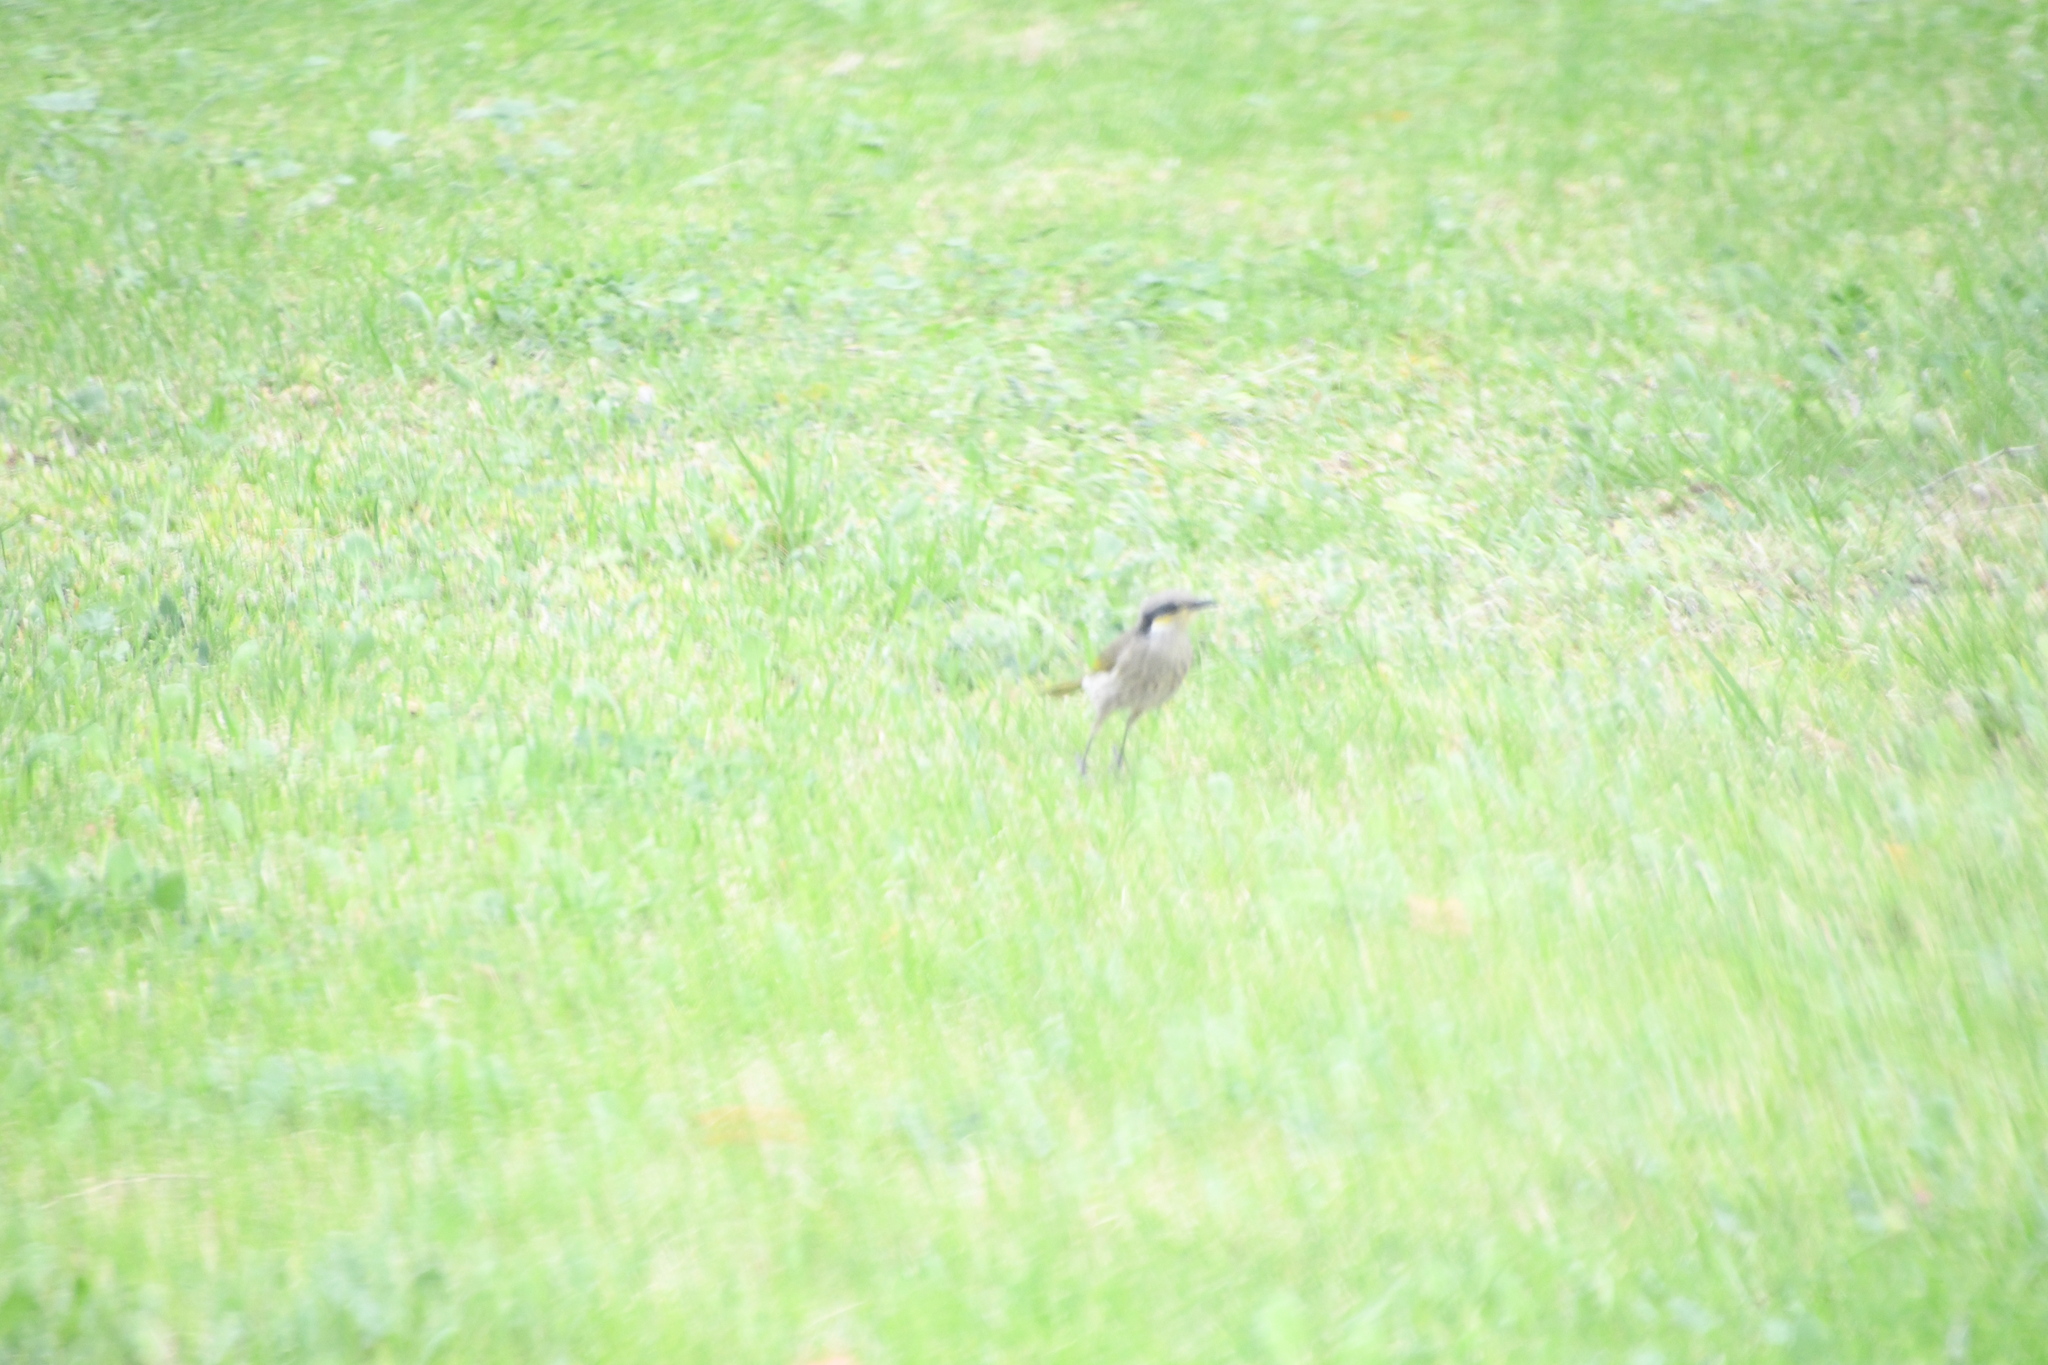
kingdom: Animalia
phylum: Chordata
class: Aves
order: Passeriformes
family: Meliphagidae
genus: Gavicalis
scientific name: Gavicalis virescens
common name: Singing honeyeater
